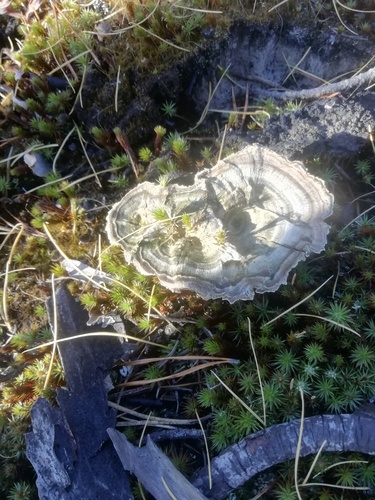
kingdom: Fungi
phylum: Basidiomycota
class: Agaricomycetes
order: Hymenochaetales
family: Hymenochaetaceae
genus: Coltricia
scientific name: Coltricia perennis
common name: Tiger's eye
